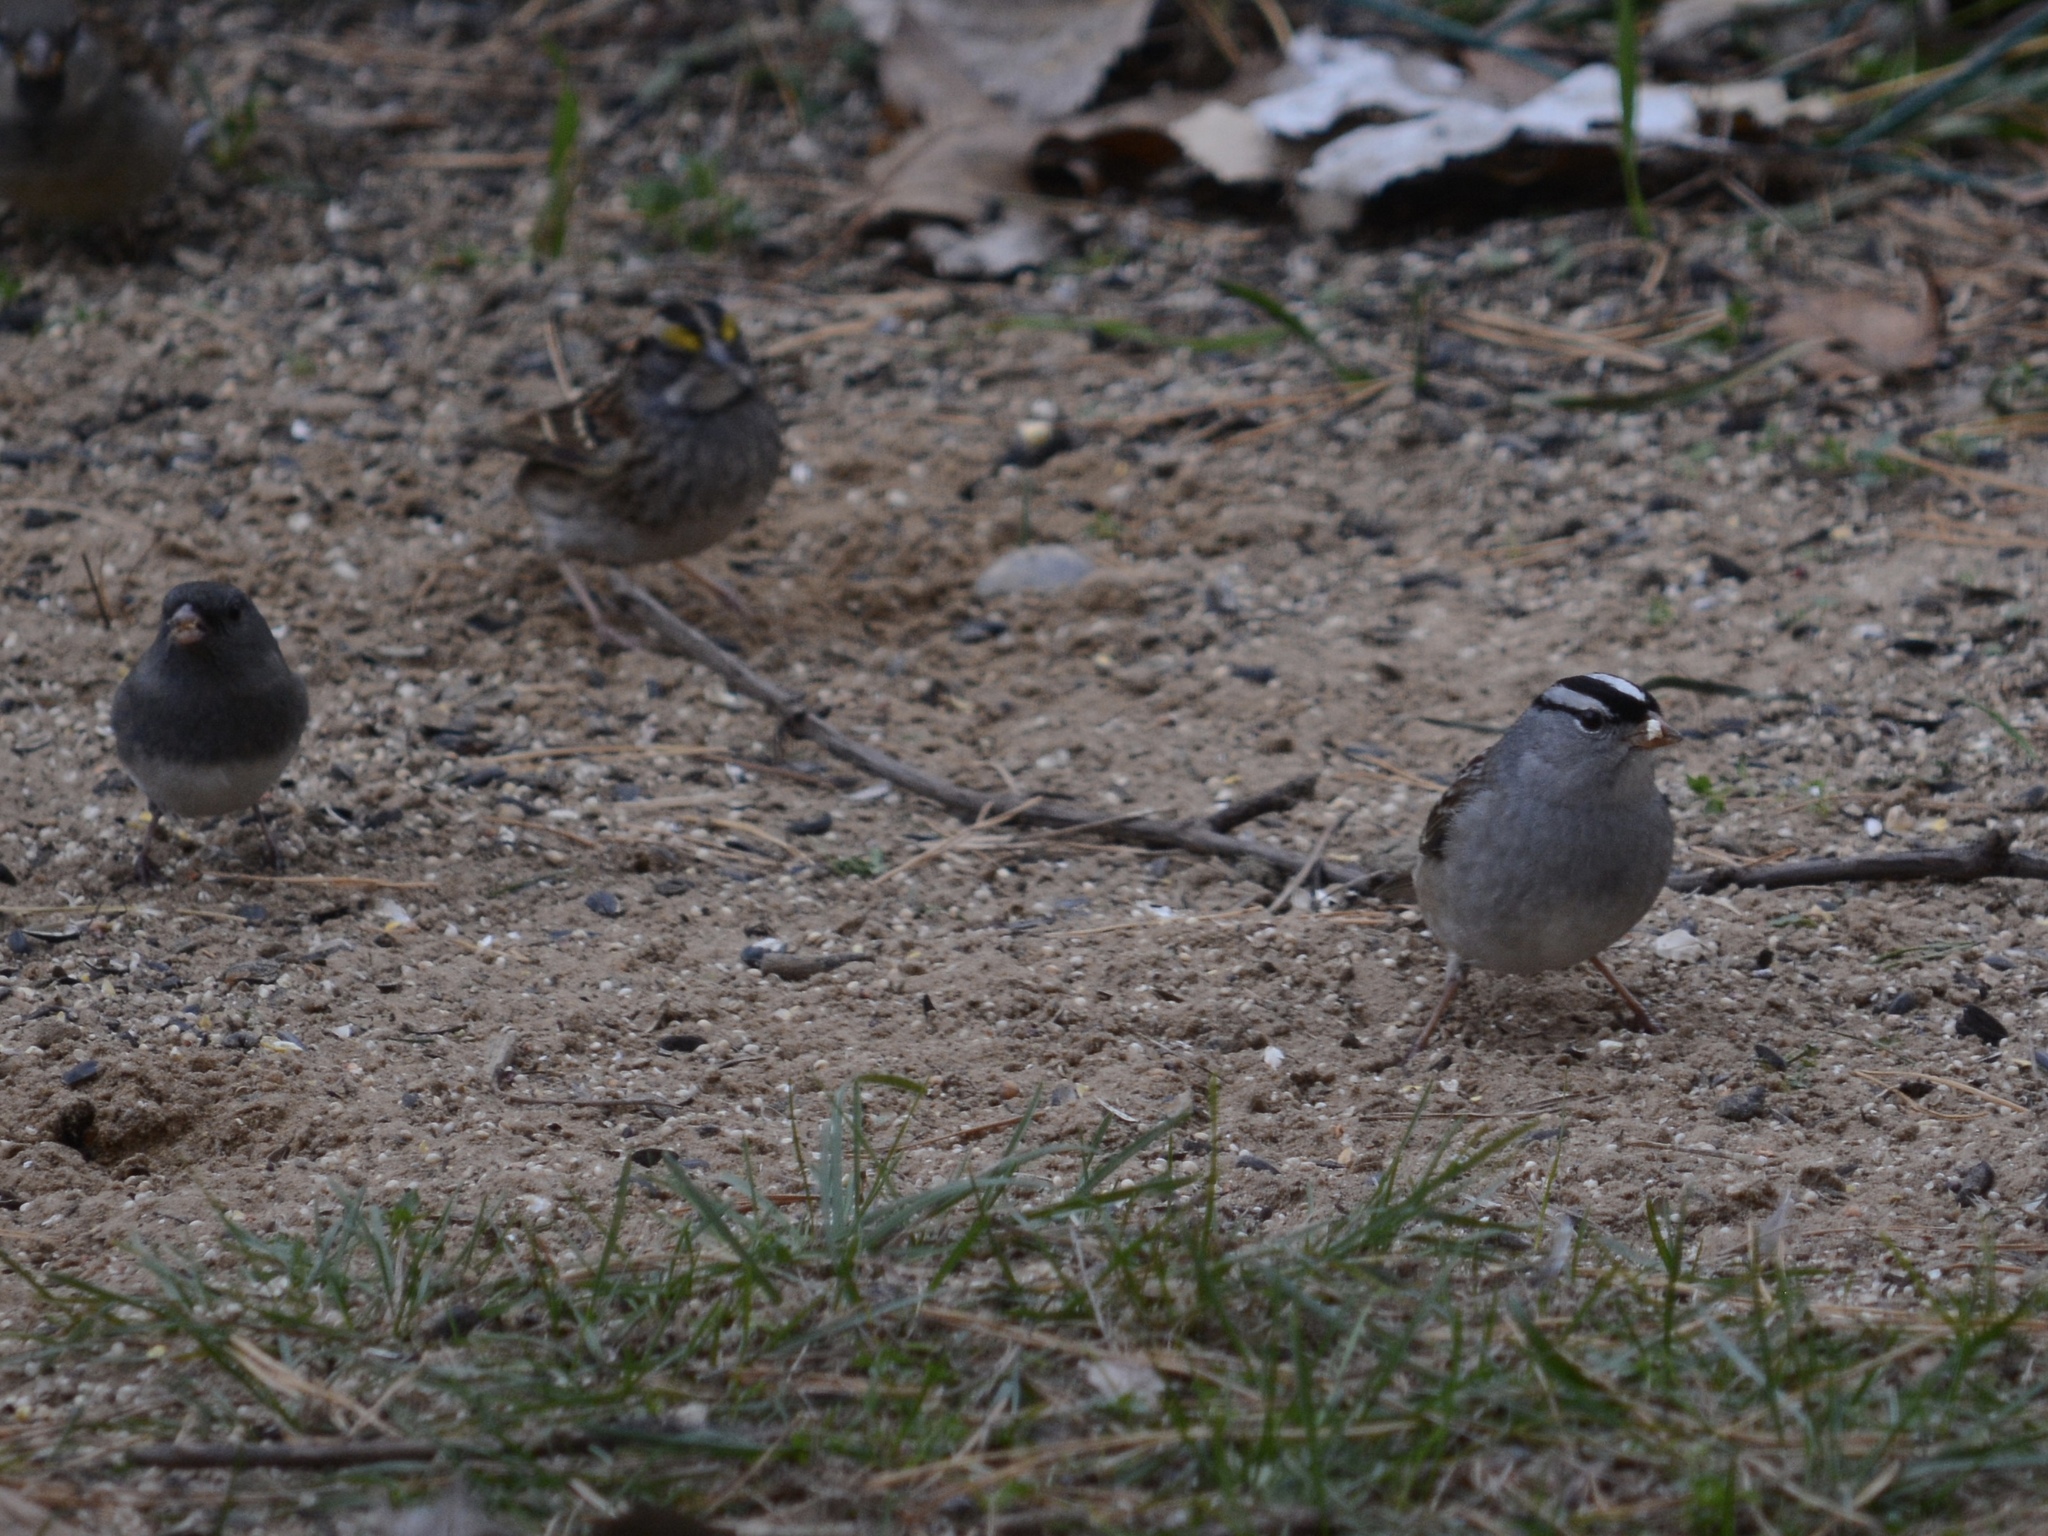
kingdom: Animalia
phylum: Chordata
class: Aves
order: Passeriformes
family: Passerellidae
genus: Zonotrichia
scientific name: Zonotrichia albicollis
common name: White-throated sparrow
